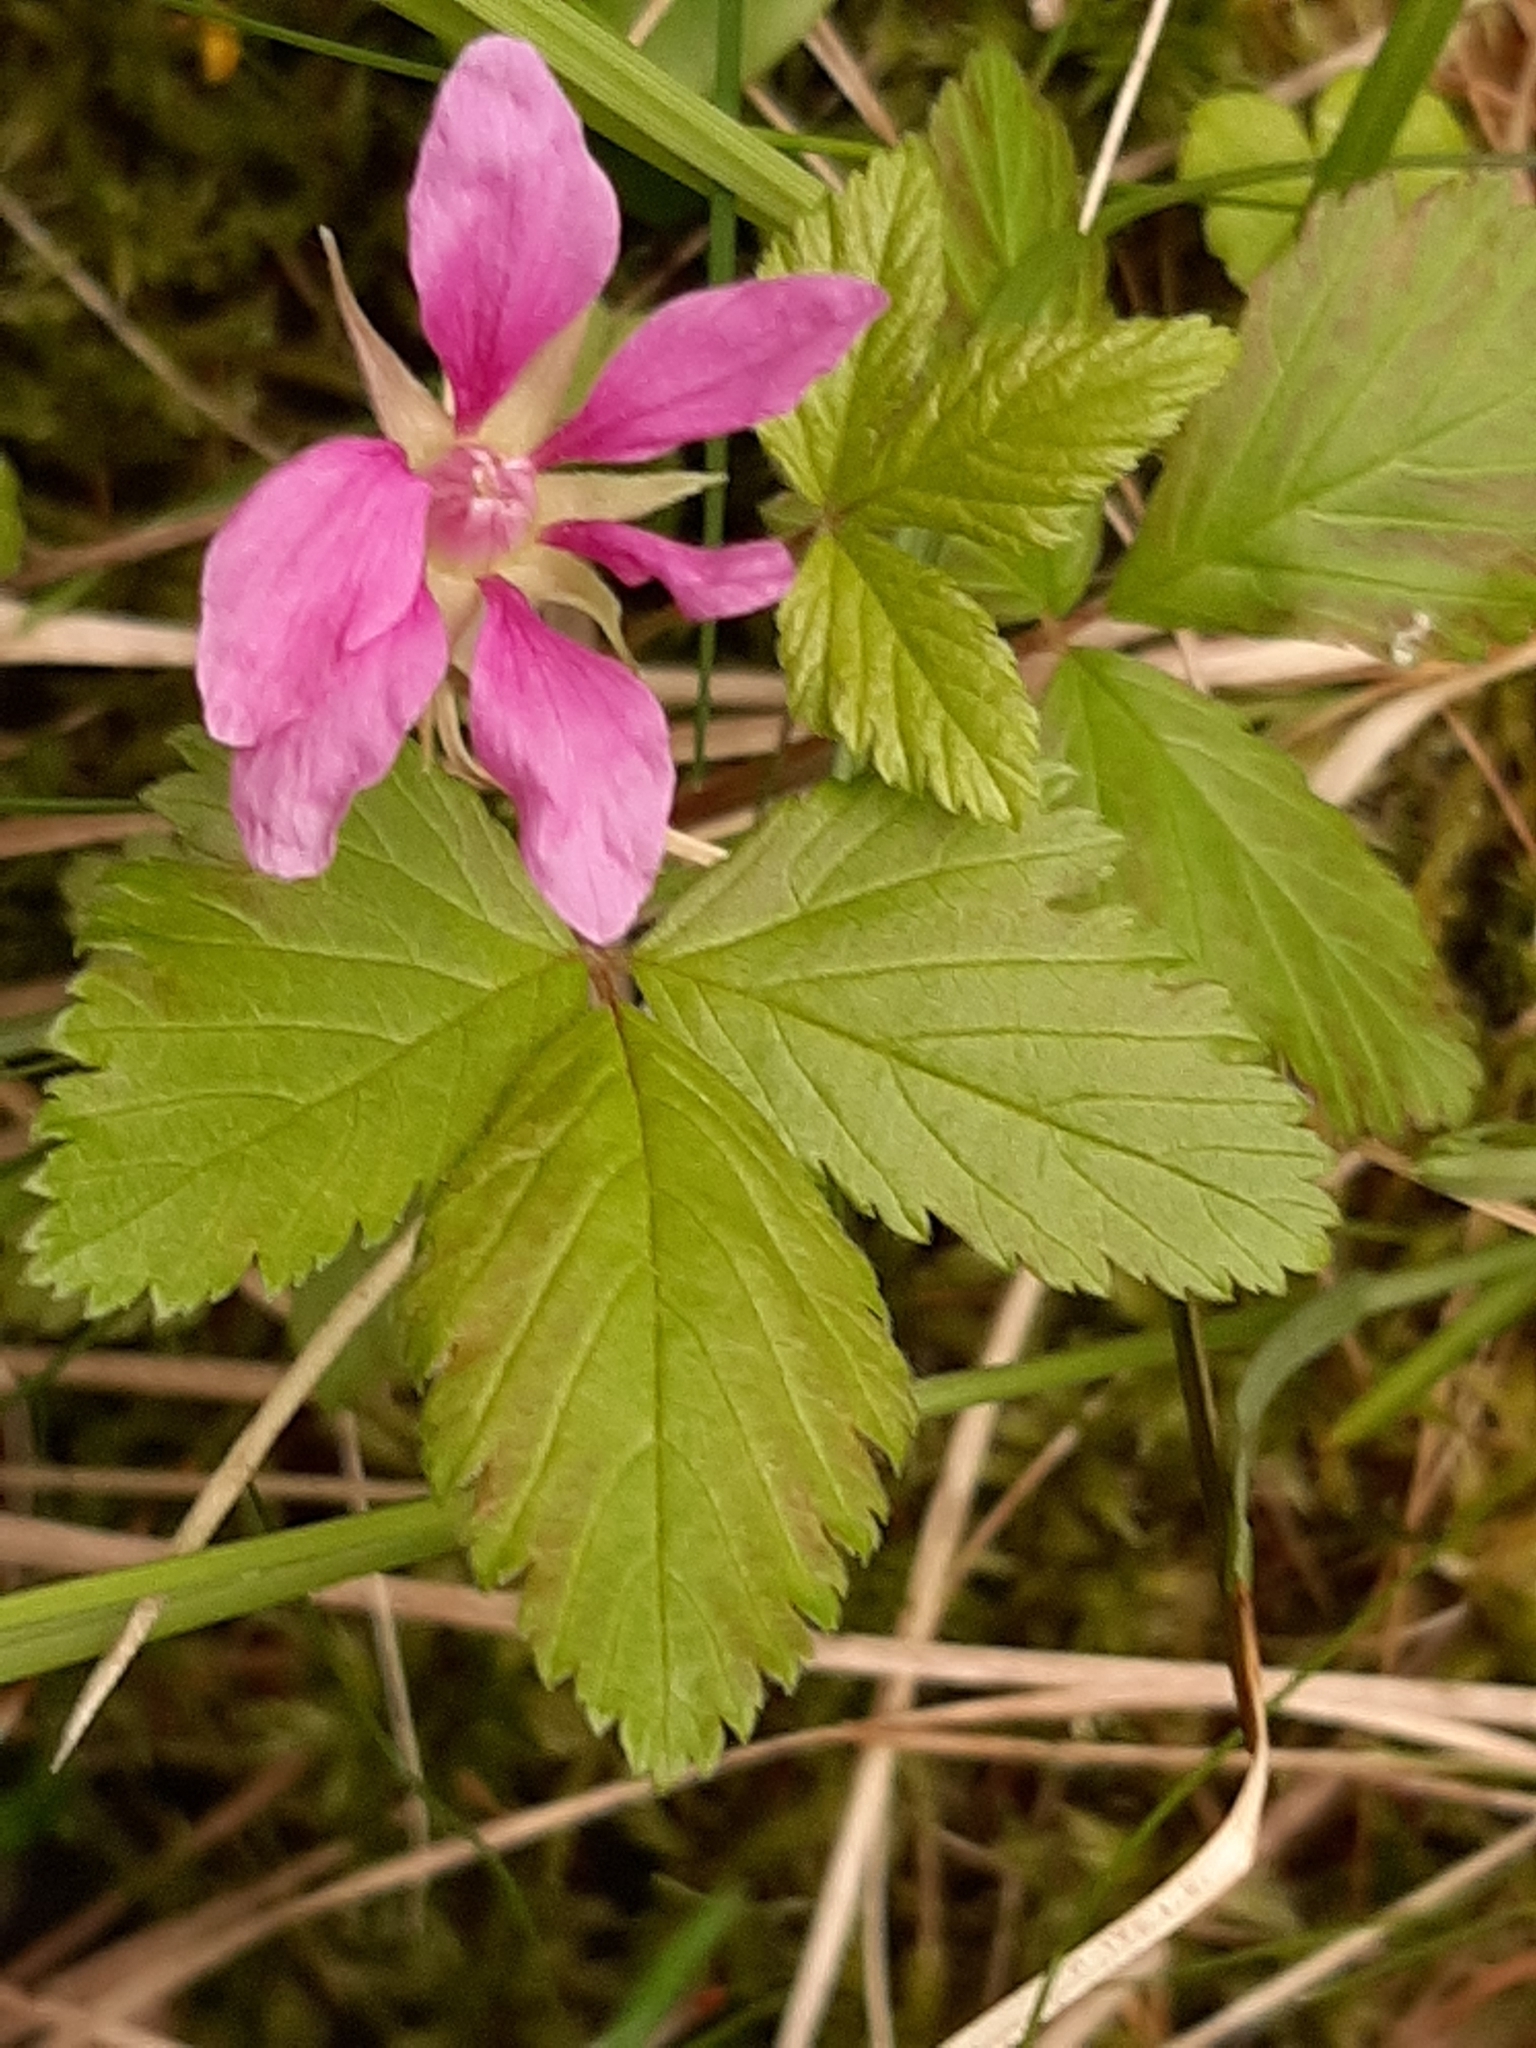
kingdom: Plantae
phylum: Tracheophyta
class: Magnoliopsida
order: Rosales
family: Rosaceae
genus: Rubus
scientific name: Rubus arcticus
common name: Arctic bramble
